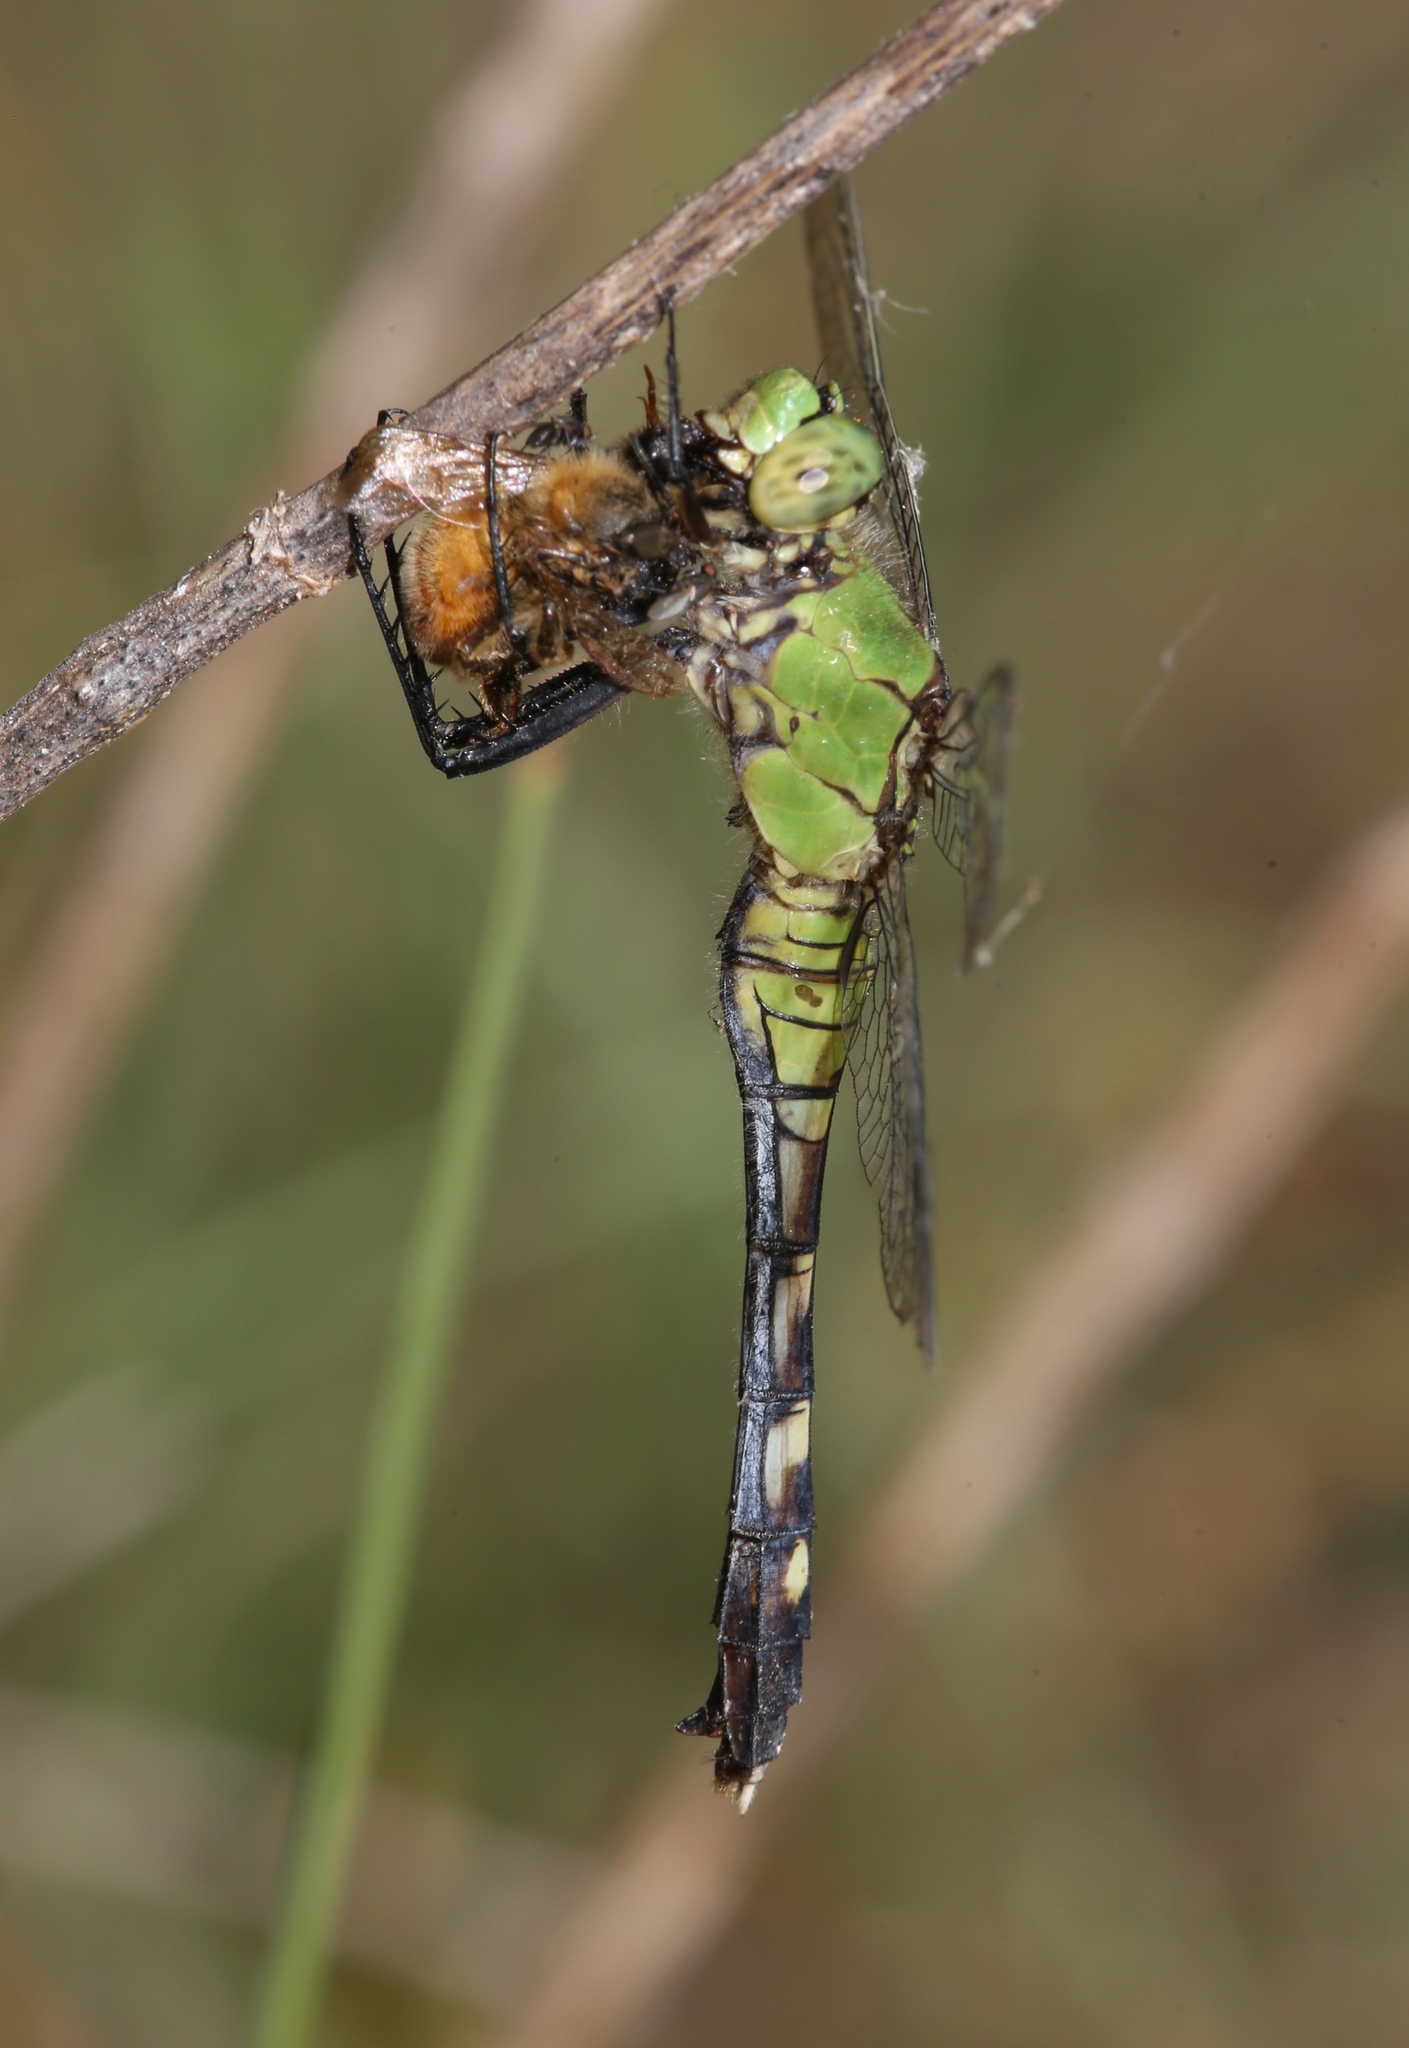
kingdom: Animalia
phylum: Arthropoda
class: Insecta
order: Odonata
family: Libellulidae
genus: Erythemis
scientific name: Erythemis simplicicollis
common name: Eastern pondhawk
